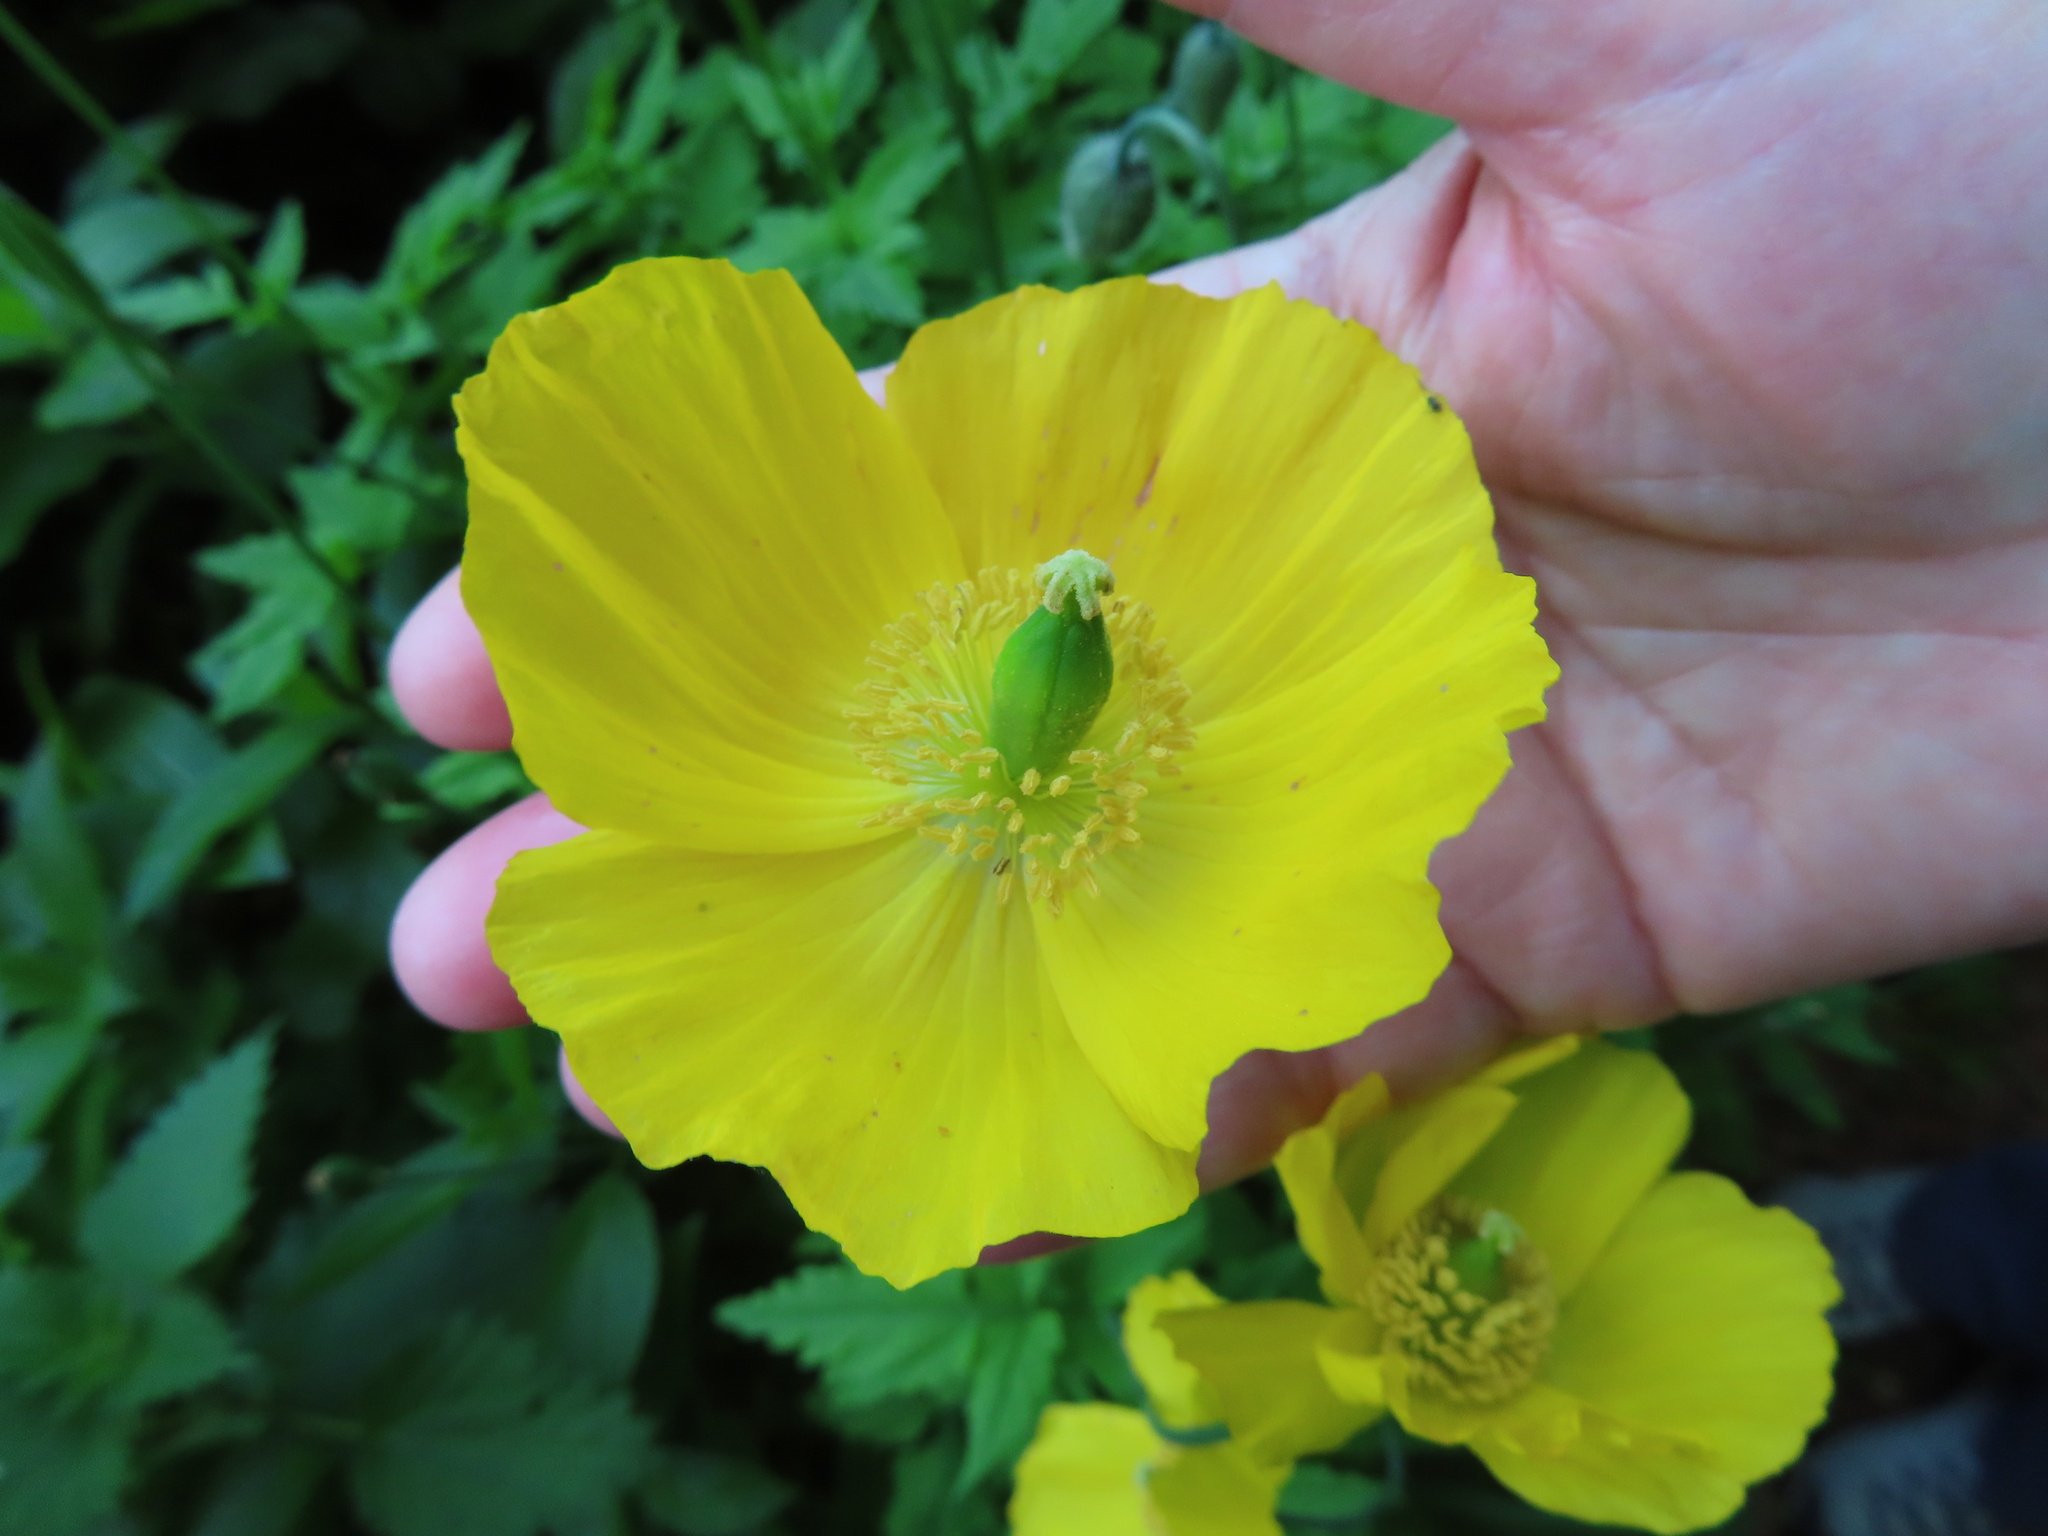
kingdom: Plantae
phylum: Tracheophyta
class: Magnoliopsida
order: Ranunculales
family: Papaveraceae
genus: Papaver
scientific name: Papaver cambricum
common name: Poppy
